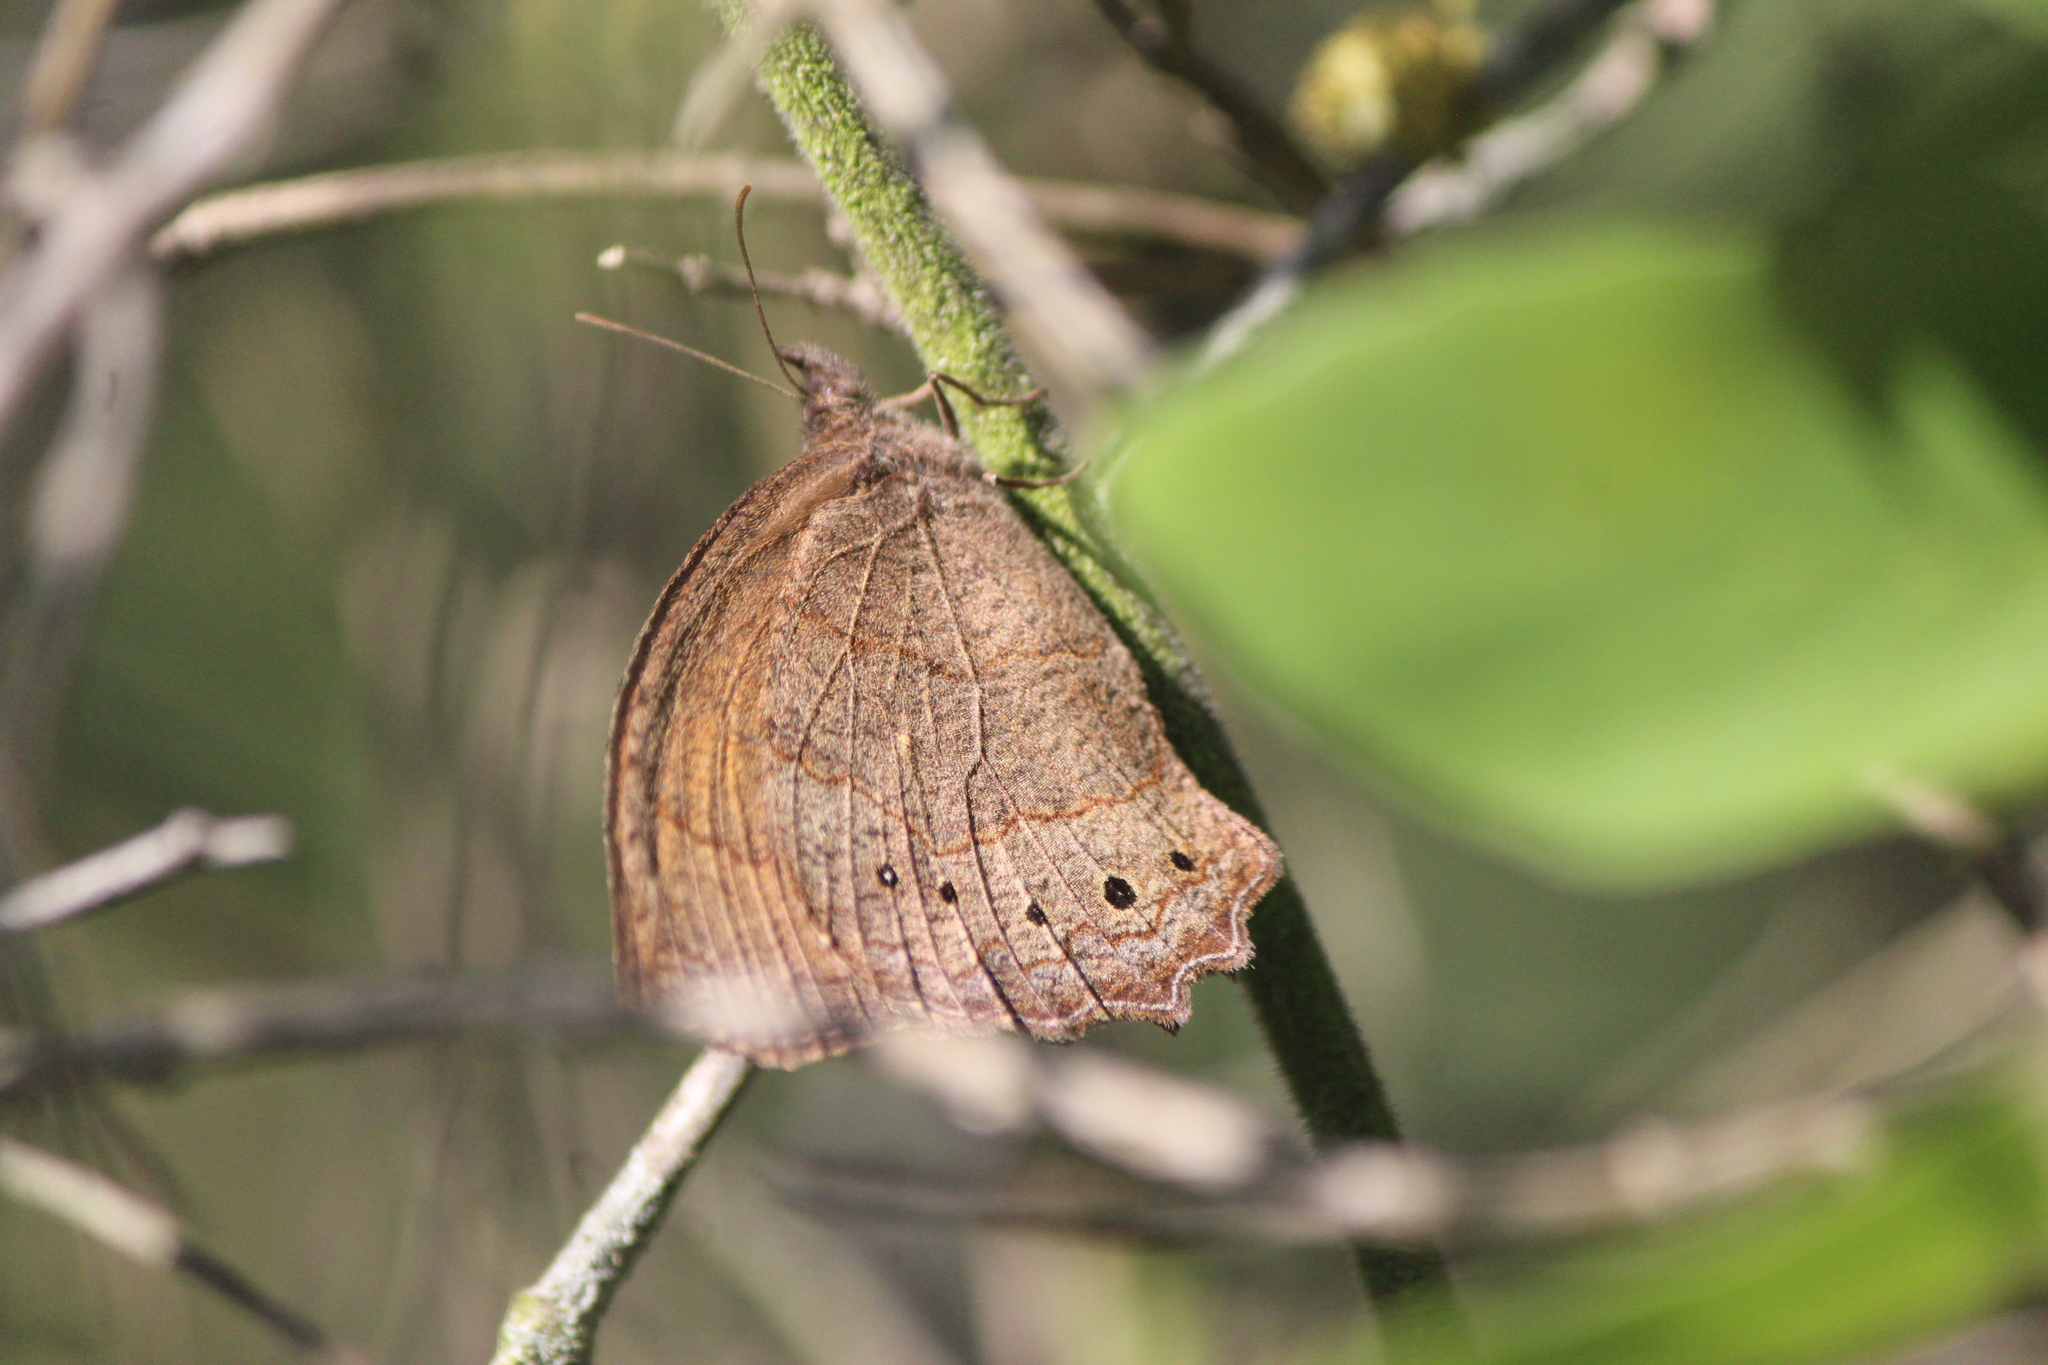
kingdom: Animalia
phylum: Arthropoda
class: Insecta
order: Lepidoptera
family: Nymphalidae
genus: Pindis
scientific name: Pindis squamistriga
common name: Variable satyr
